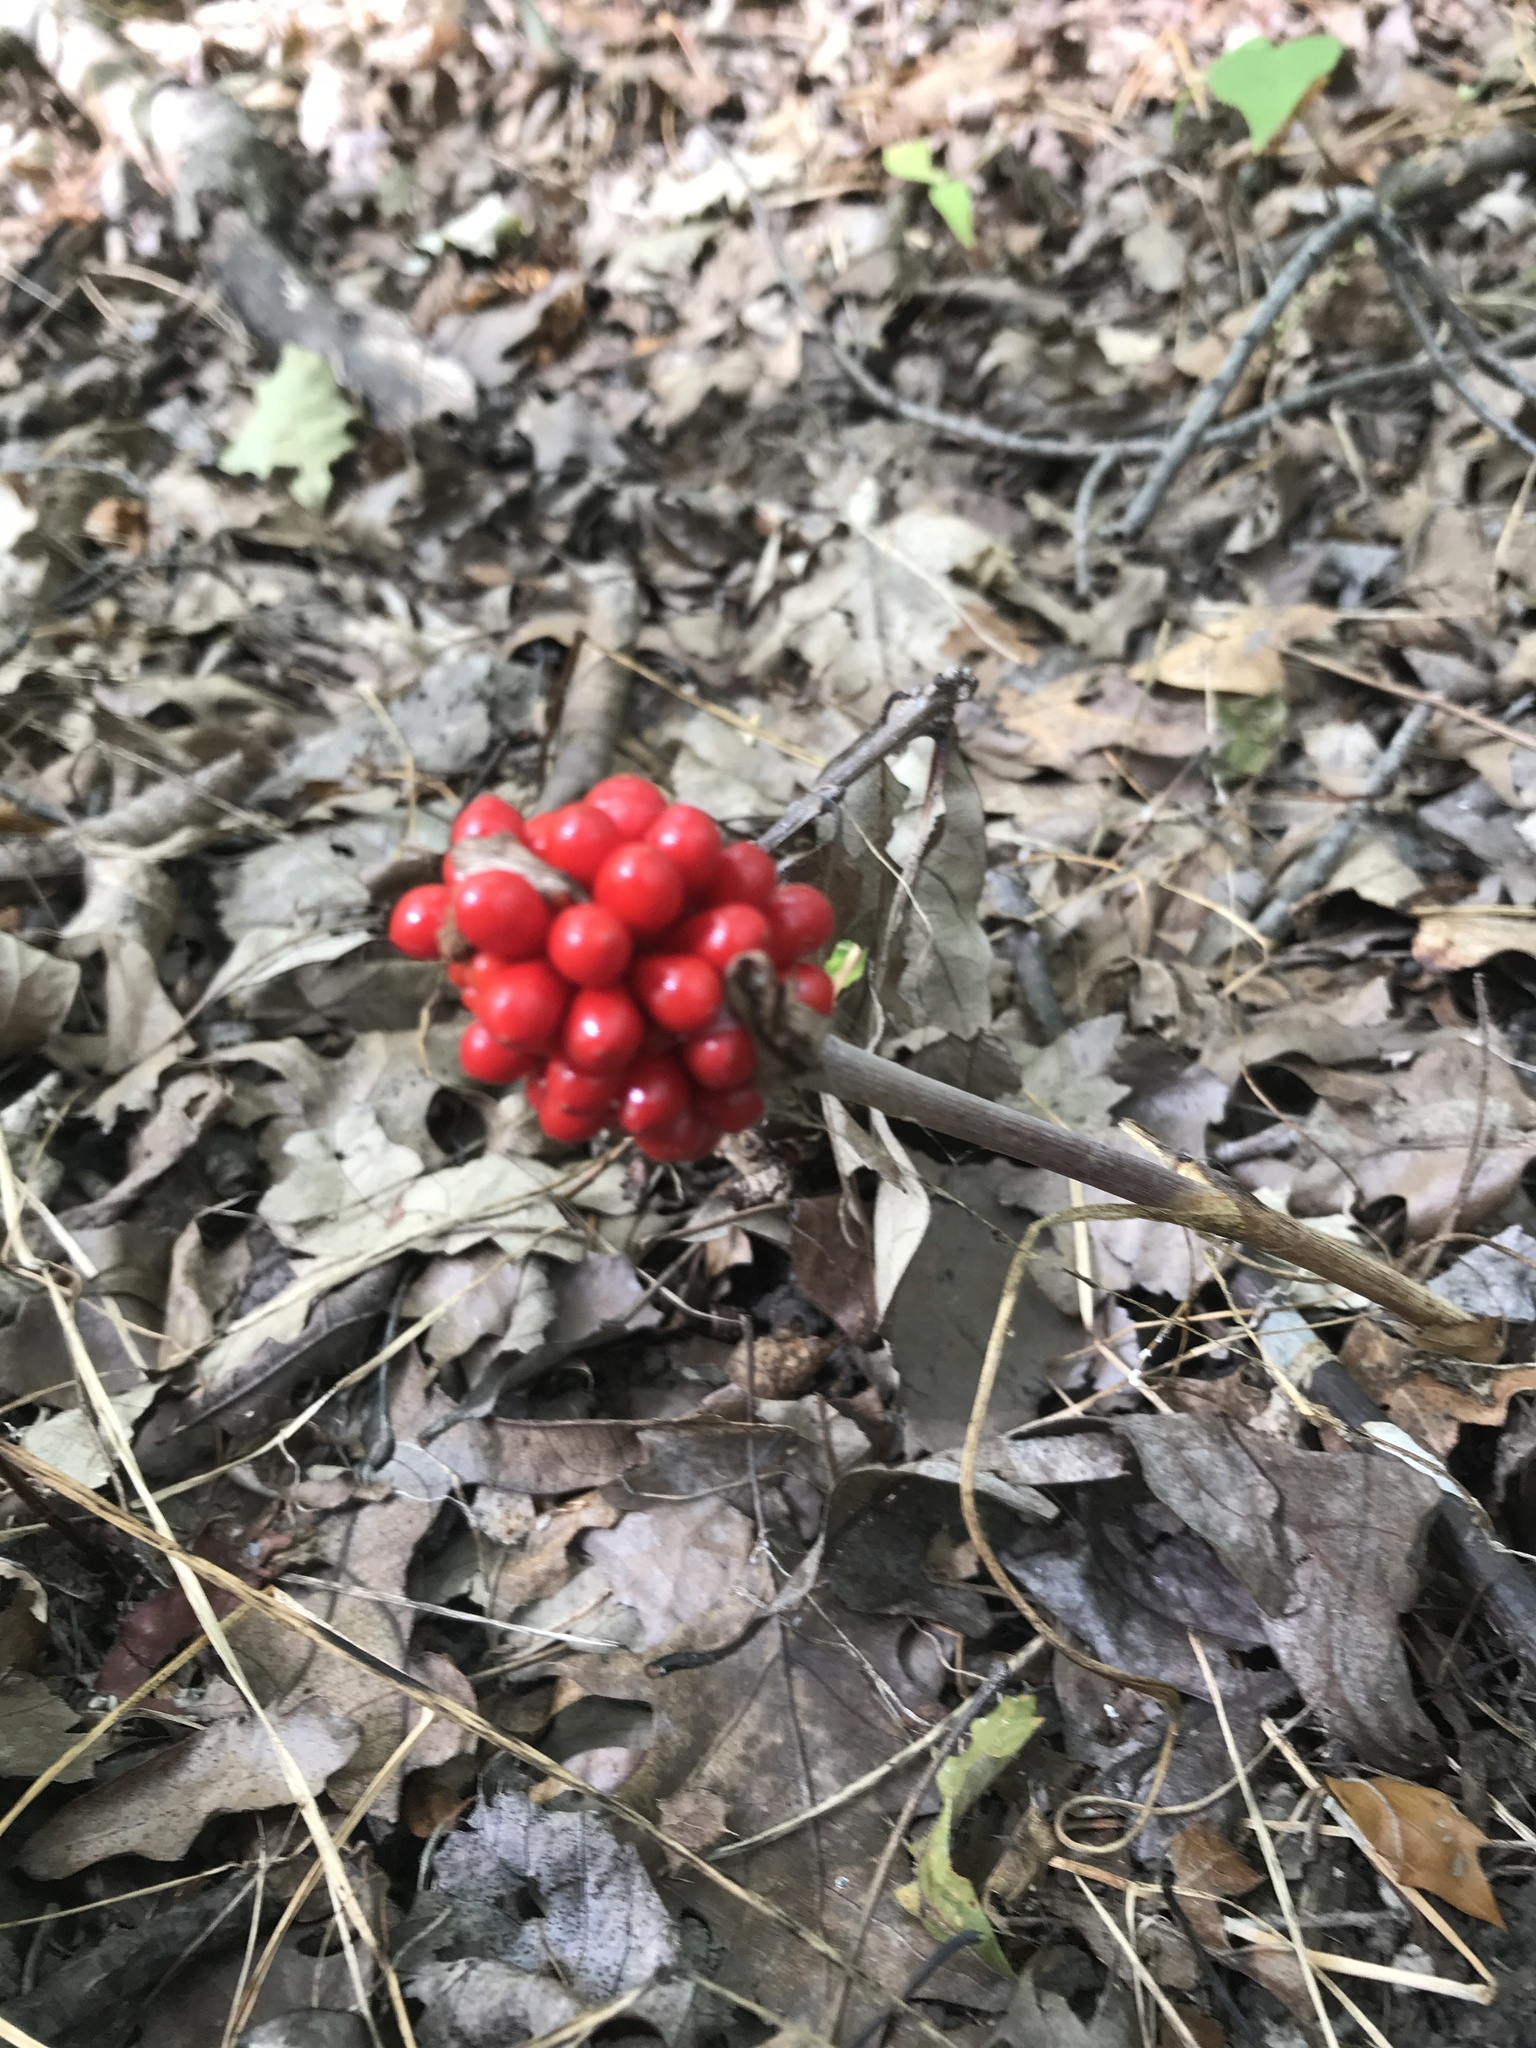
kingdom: Plantae
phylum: Tracheophyta
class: Liliopsida
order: Alismatales
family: Araceae
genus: Arisaema
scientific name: Arisaema triphyllum
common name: Jack-in-the-pulpit
